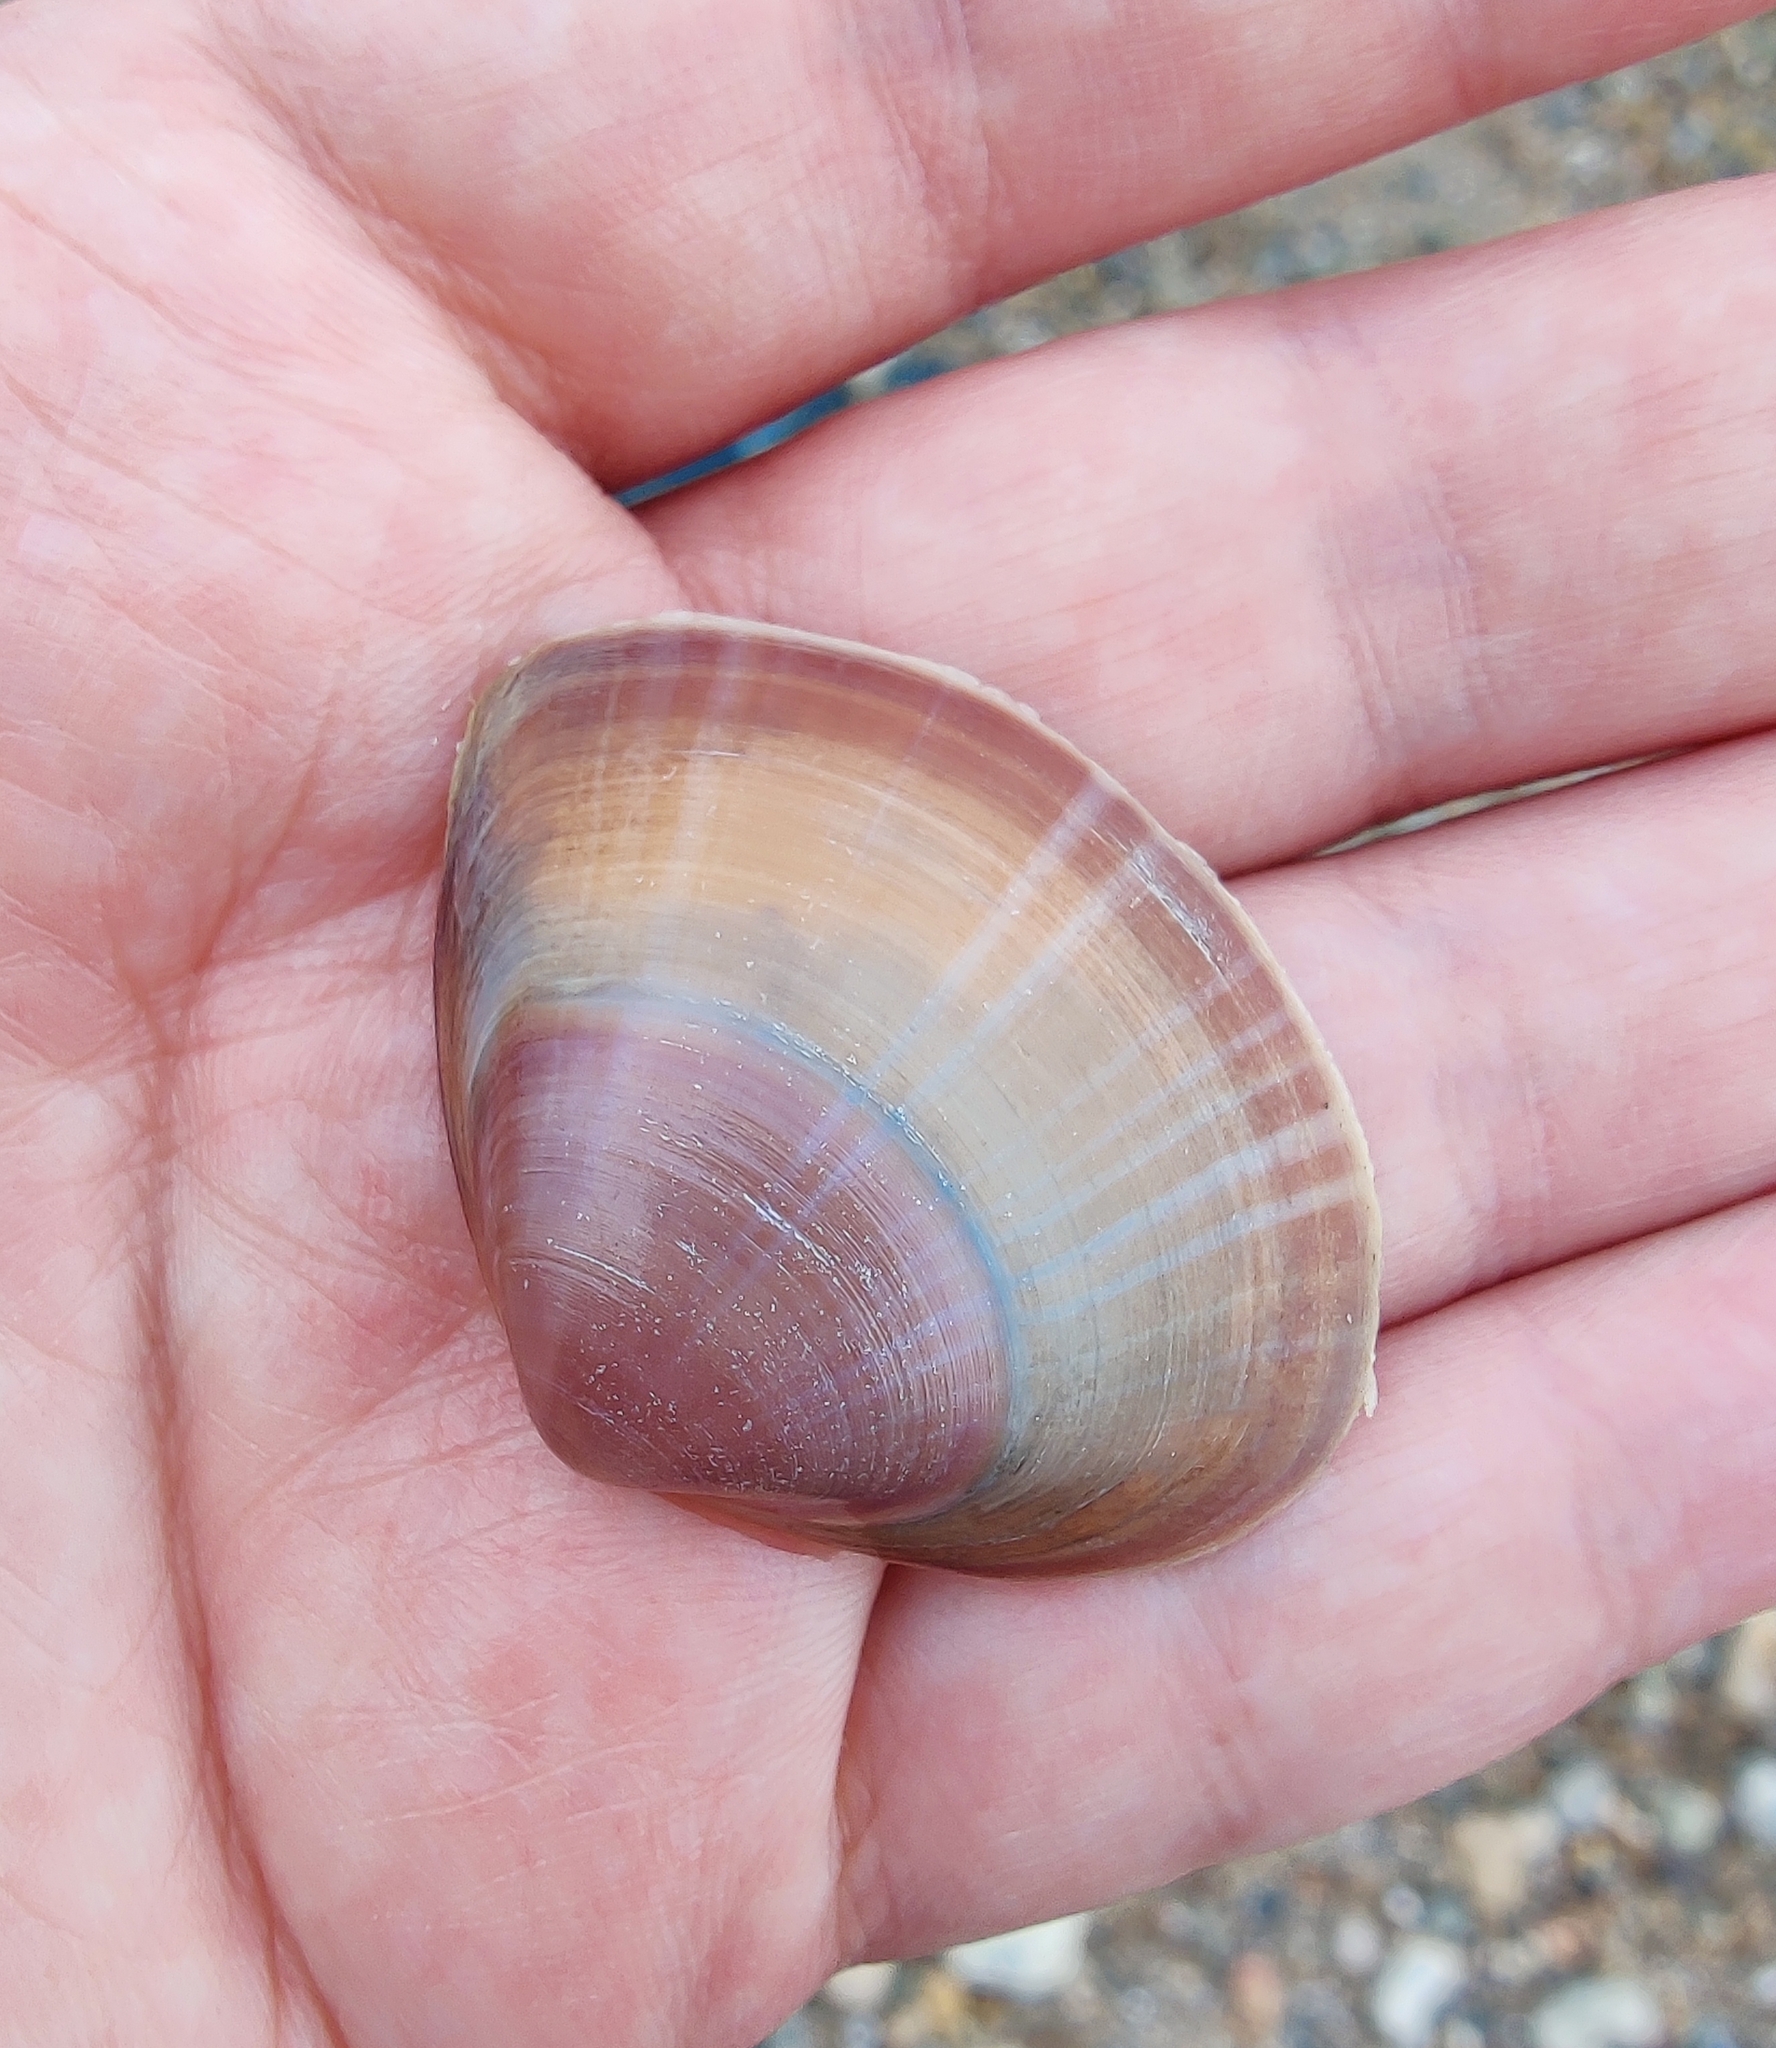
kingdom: Animalia
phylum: Mollusca
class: Bivalvia
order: Venerida
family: Mactridae
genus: Mactra
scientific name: Mactra stultorum
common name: Rayed trough shell
